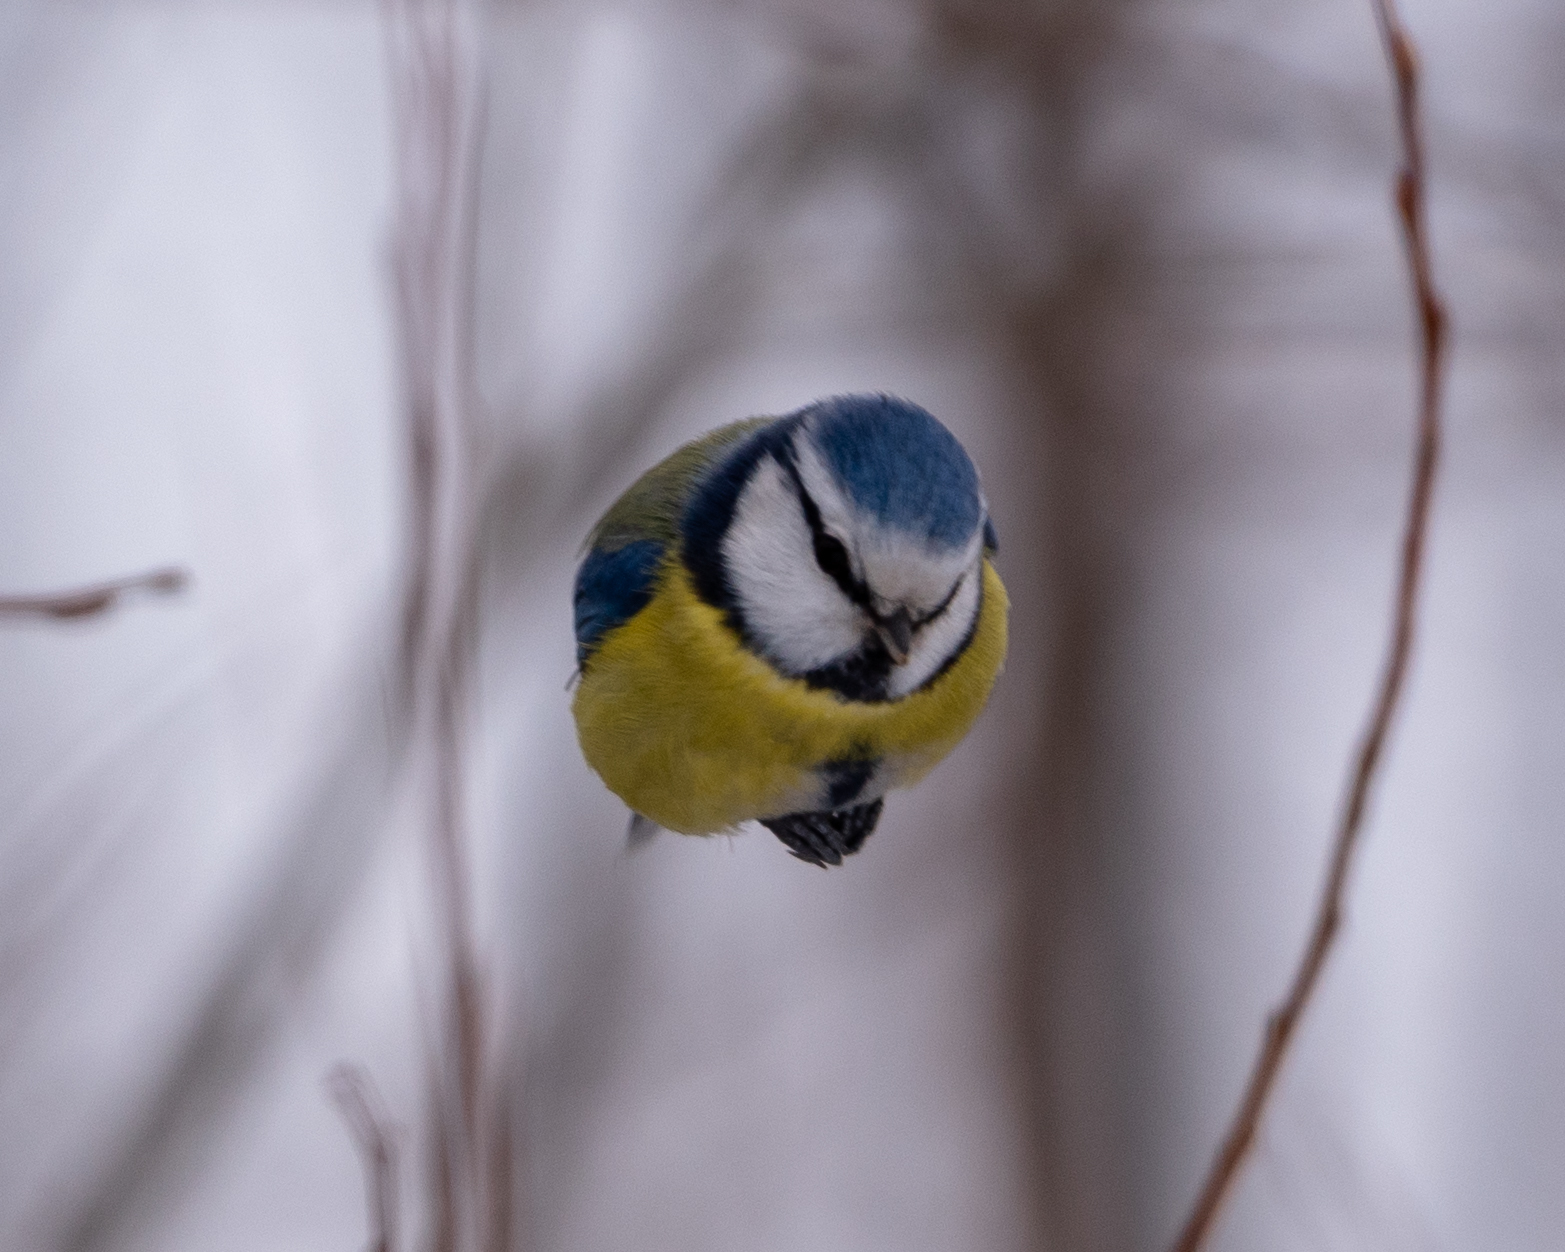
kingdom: Animalia
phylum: Chordata
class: Aves
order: Passeriformes
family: Paridae
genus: Cyanistes
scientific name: Cyanistes caeruleus
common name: Eurasian blue tit
